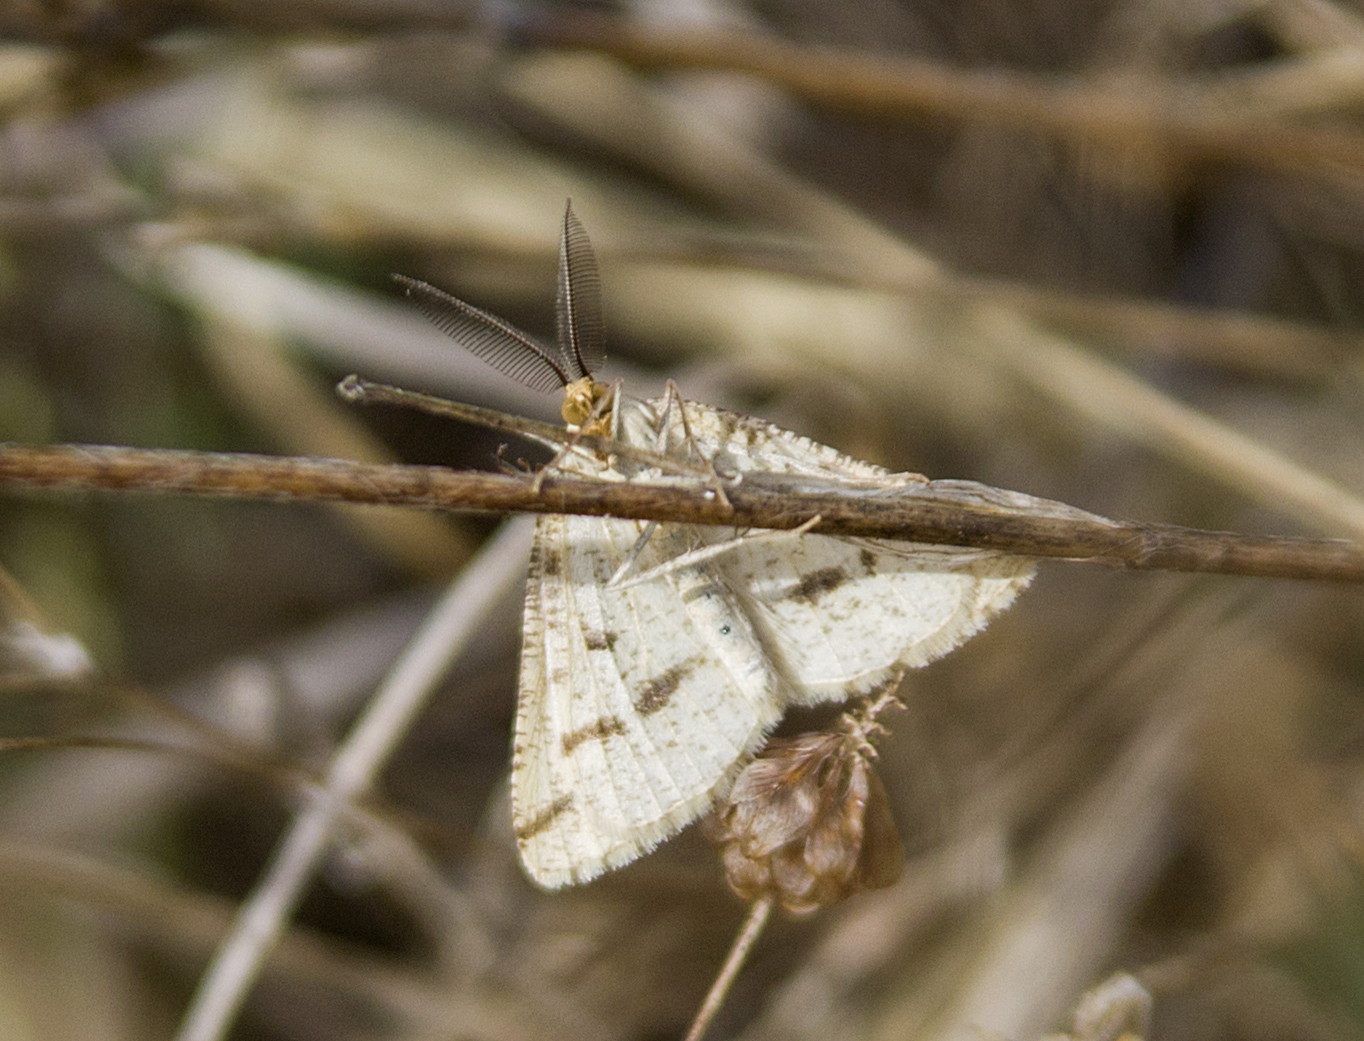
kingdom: Animalia
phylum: Arthropoda
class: Insecta
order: Lepidoptera
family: Geometridae
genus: Aspitates
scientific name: Aspitates ochrearia
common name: Yellow belle
